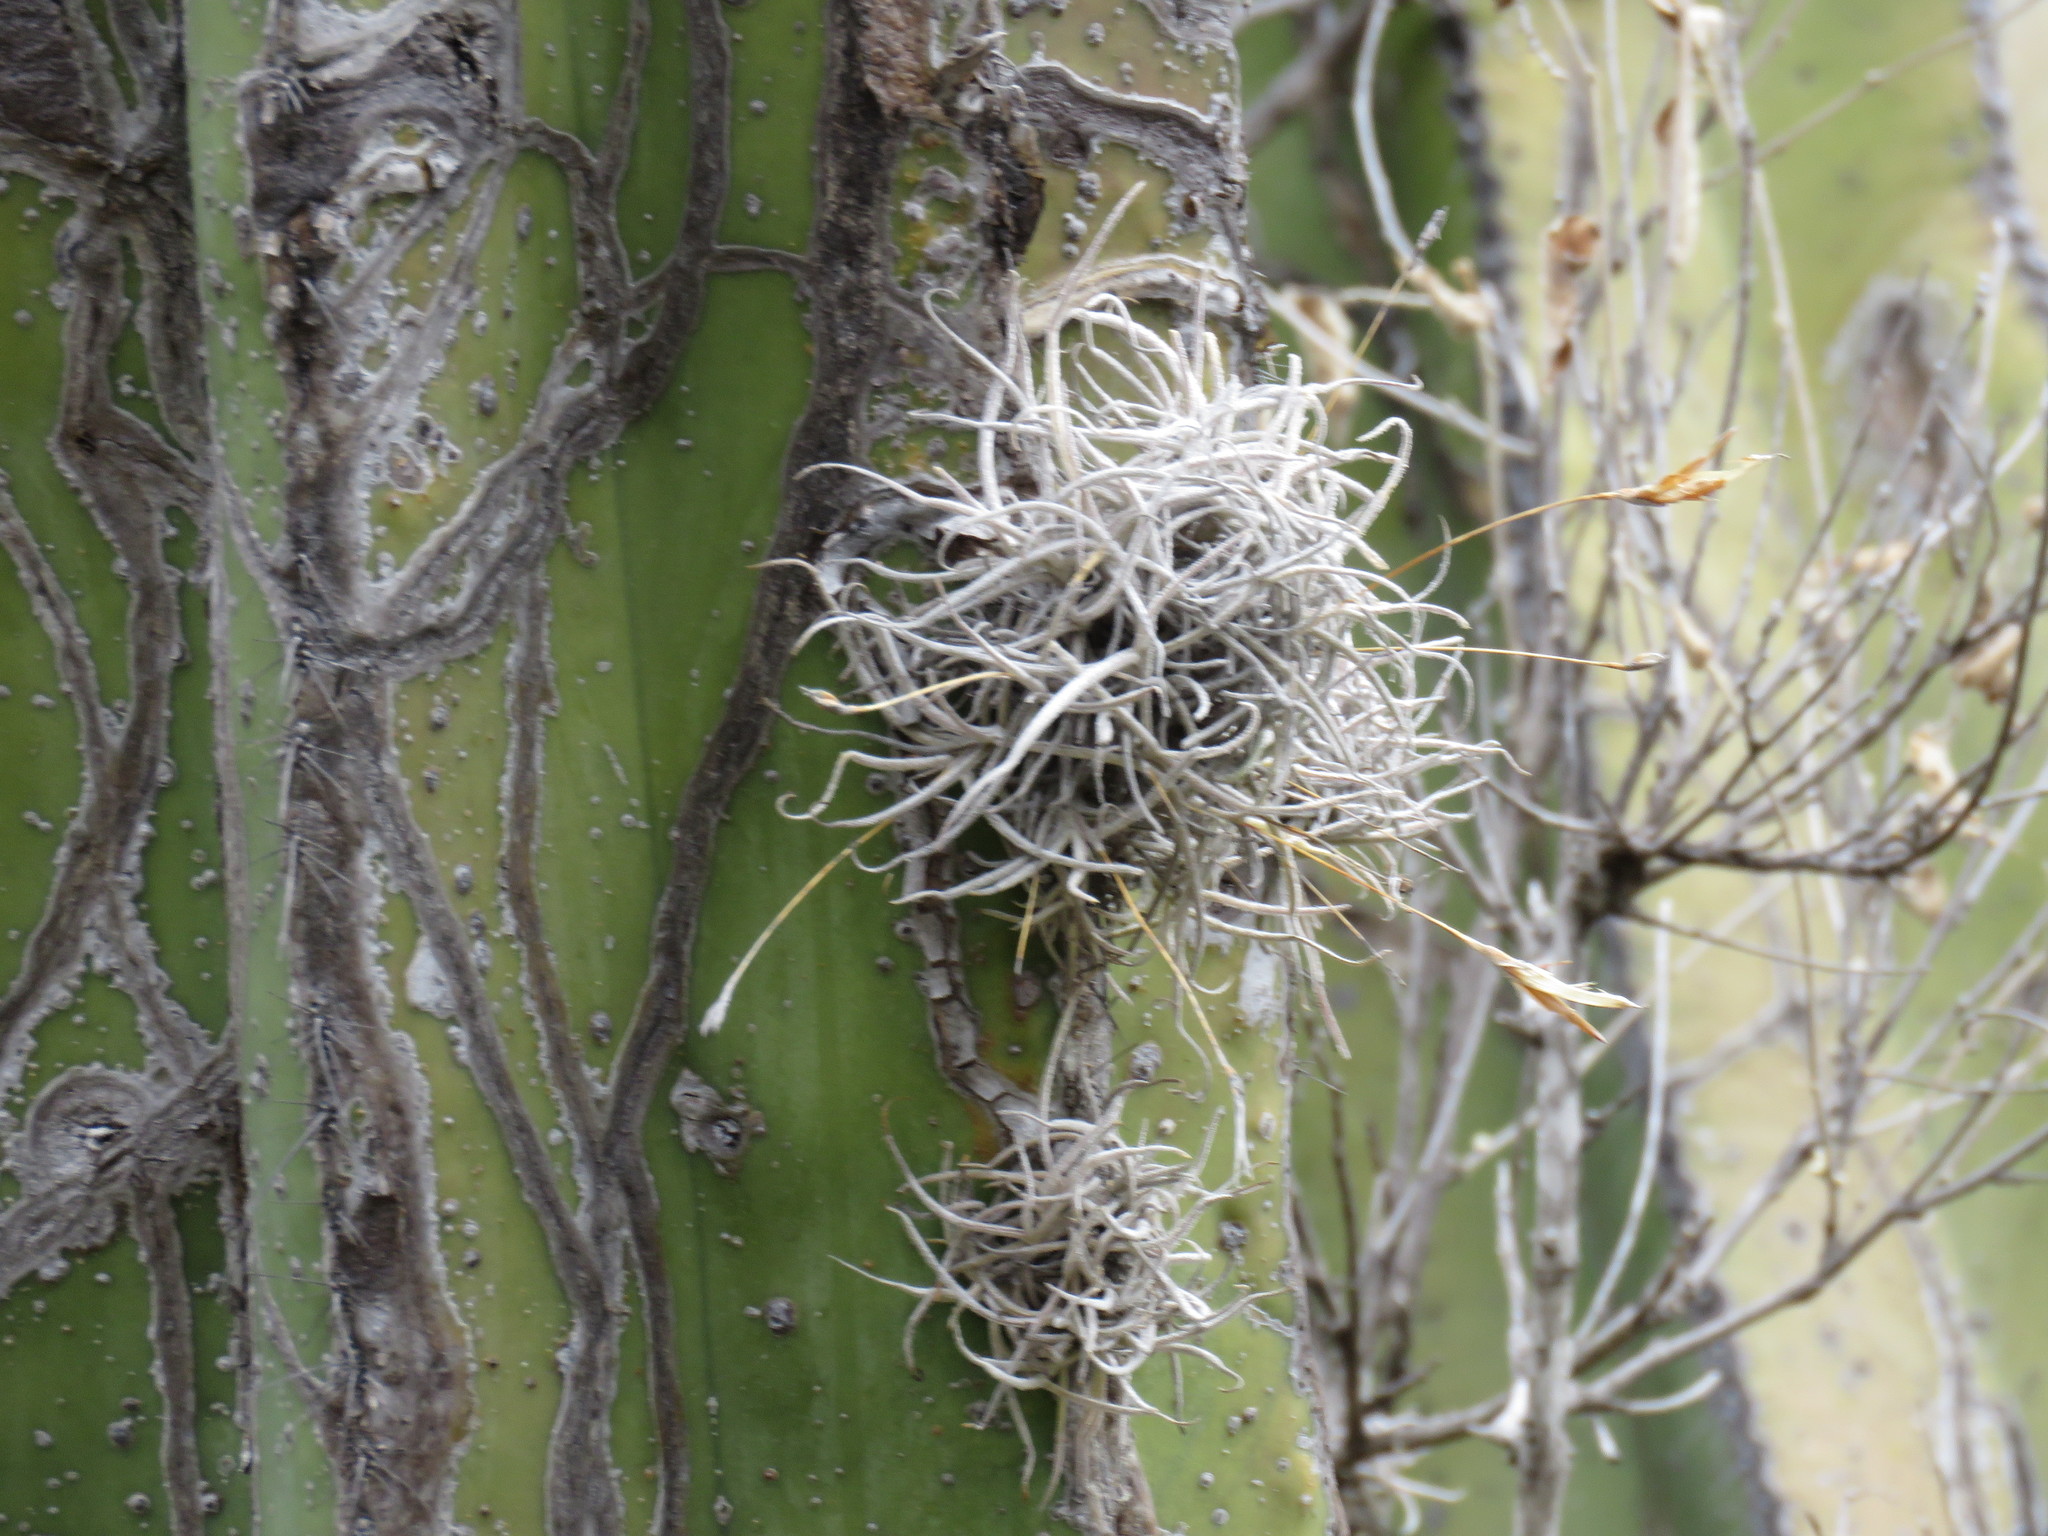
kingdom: Plantae
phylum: Tracheophyta
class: Liliopsida
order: Poales
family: Bromeliaceae
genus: Tillandsia
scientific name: Tillandsia recurvata
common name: Small ballmoss
